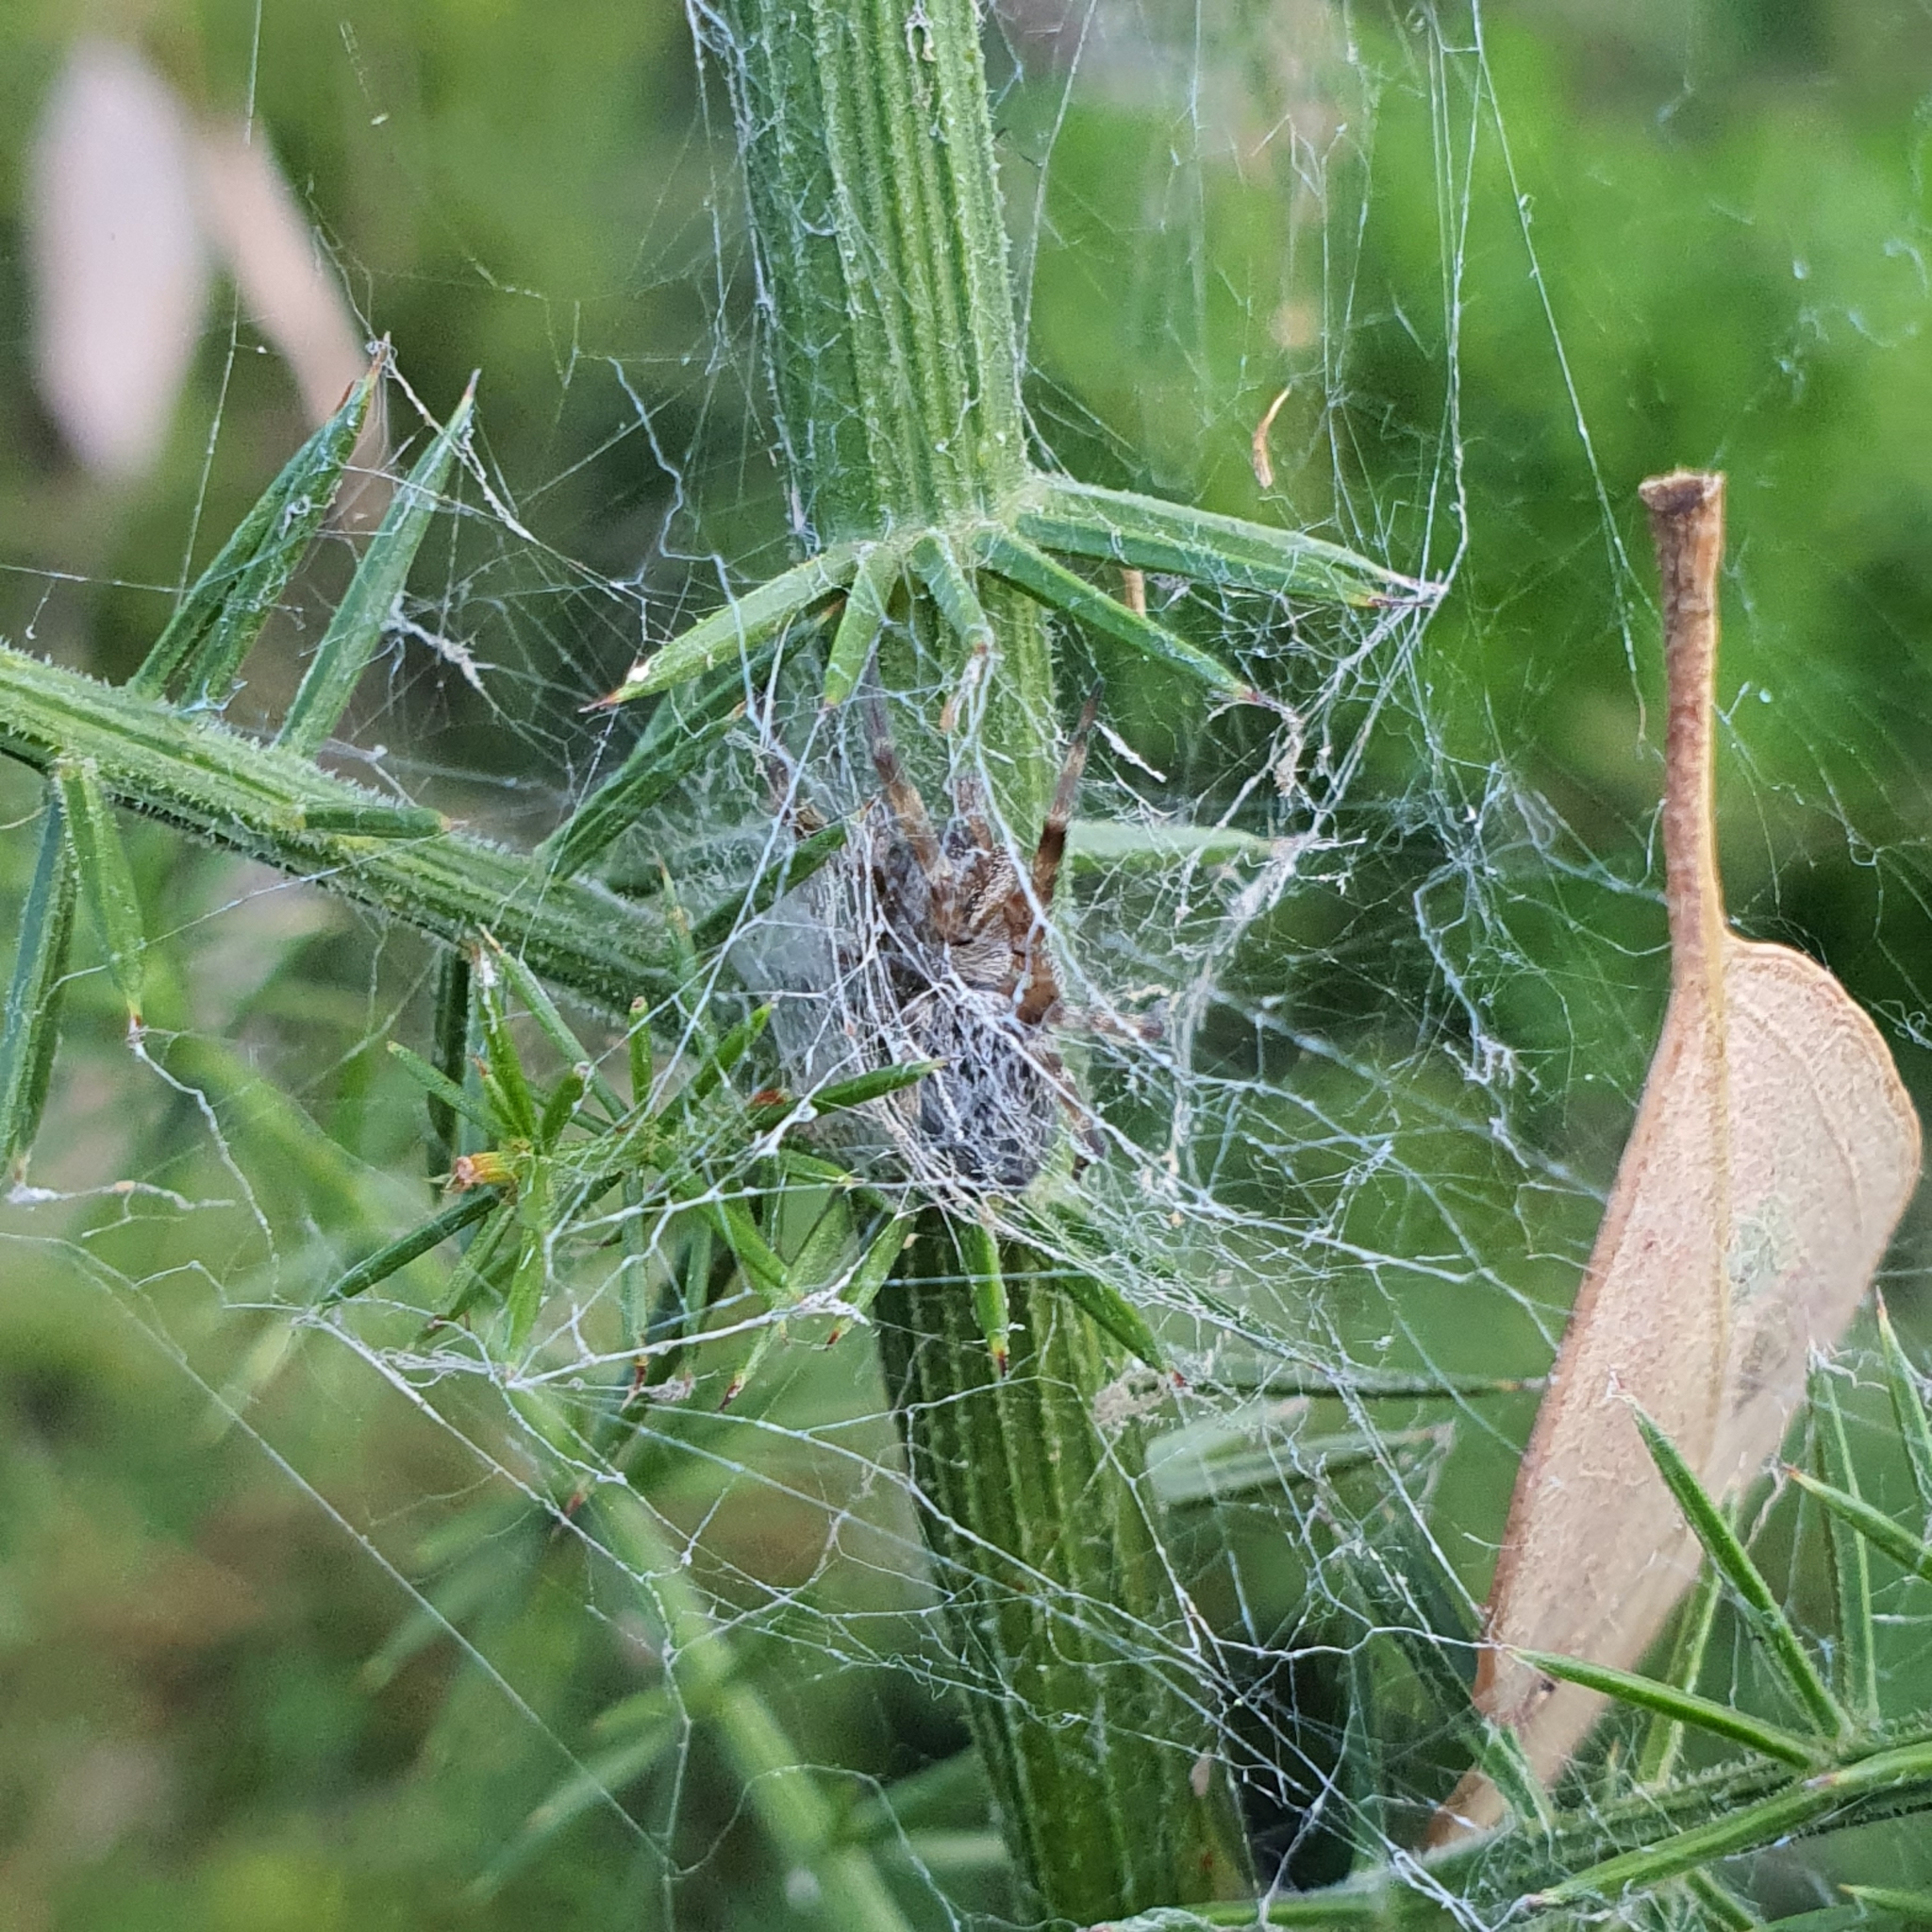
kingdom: Animalia
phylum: Arthropoda
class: Arachnida
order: Araneae
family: Desidae
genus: Badumna
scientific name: Badumna longinqua
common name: Gray house spider
